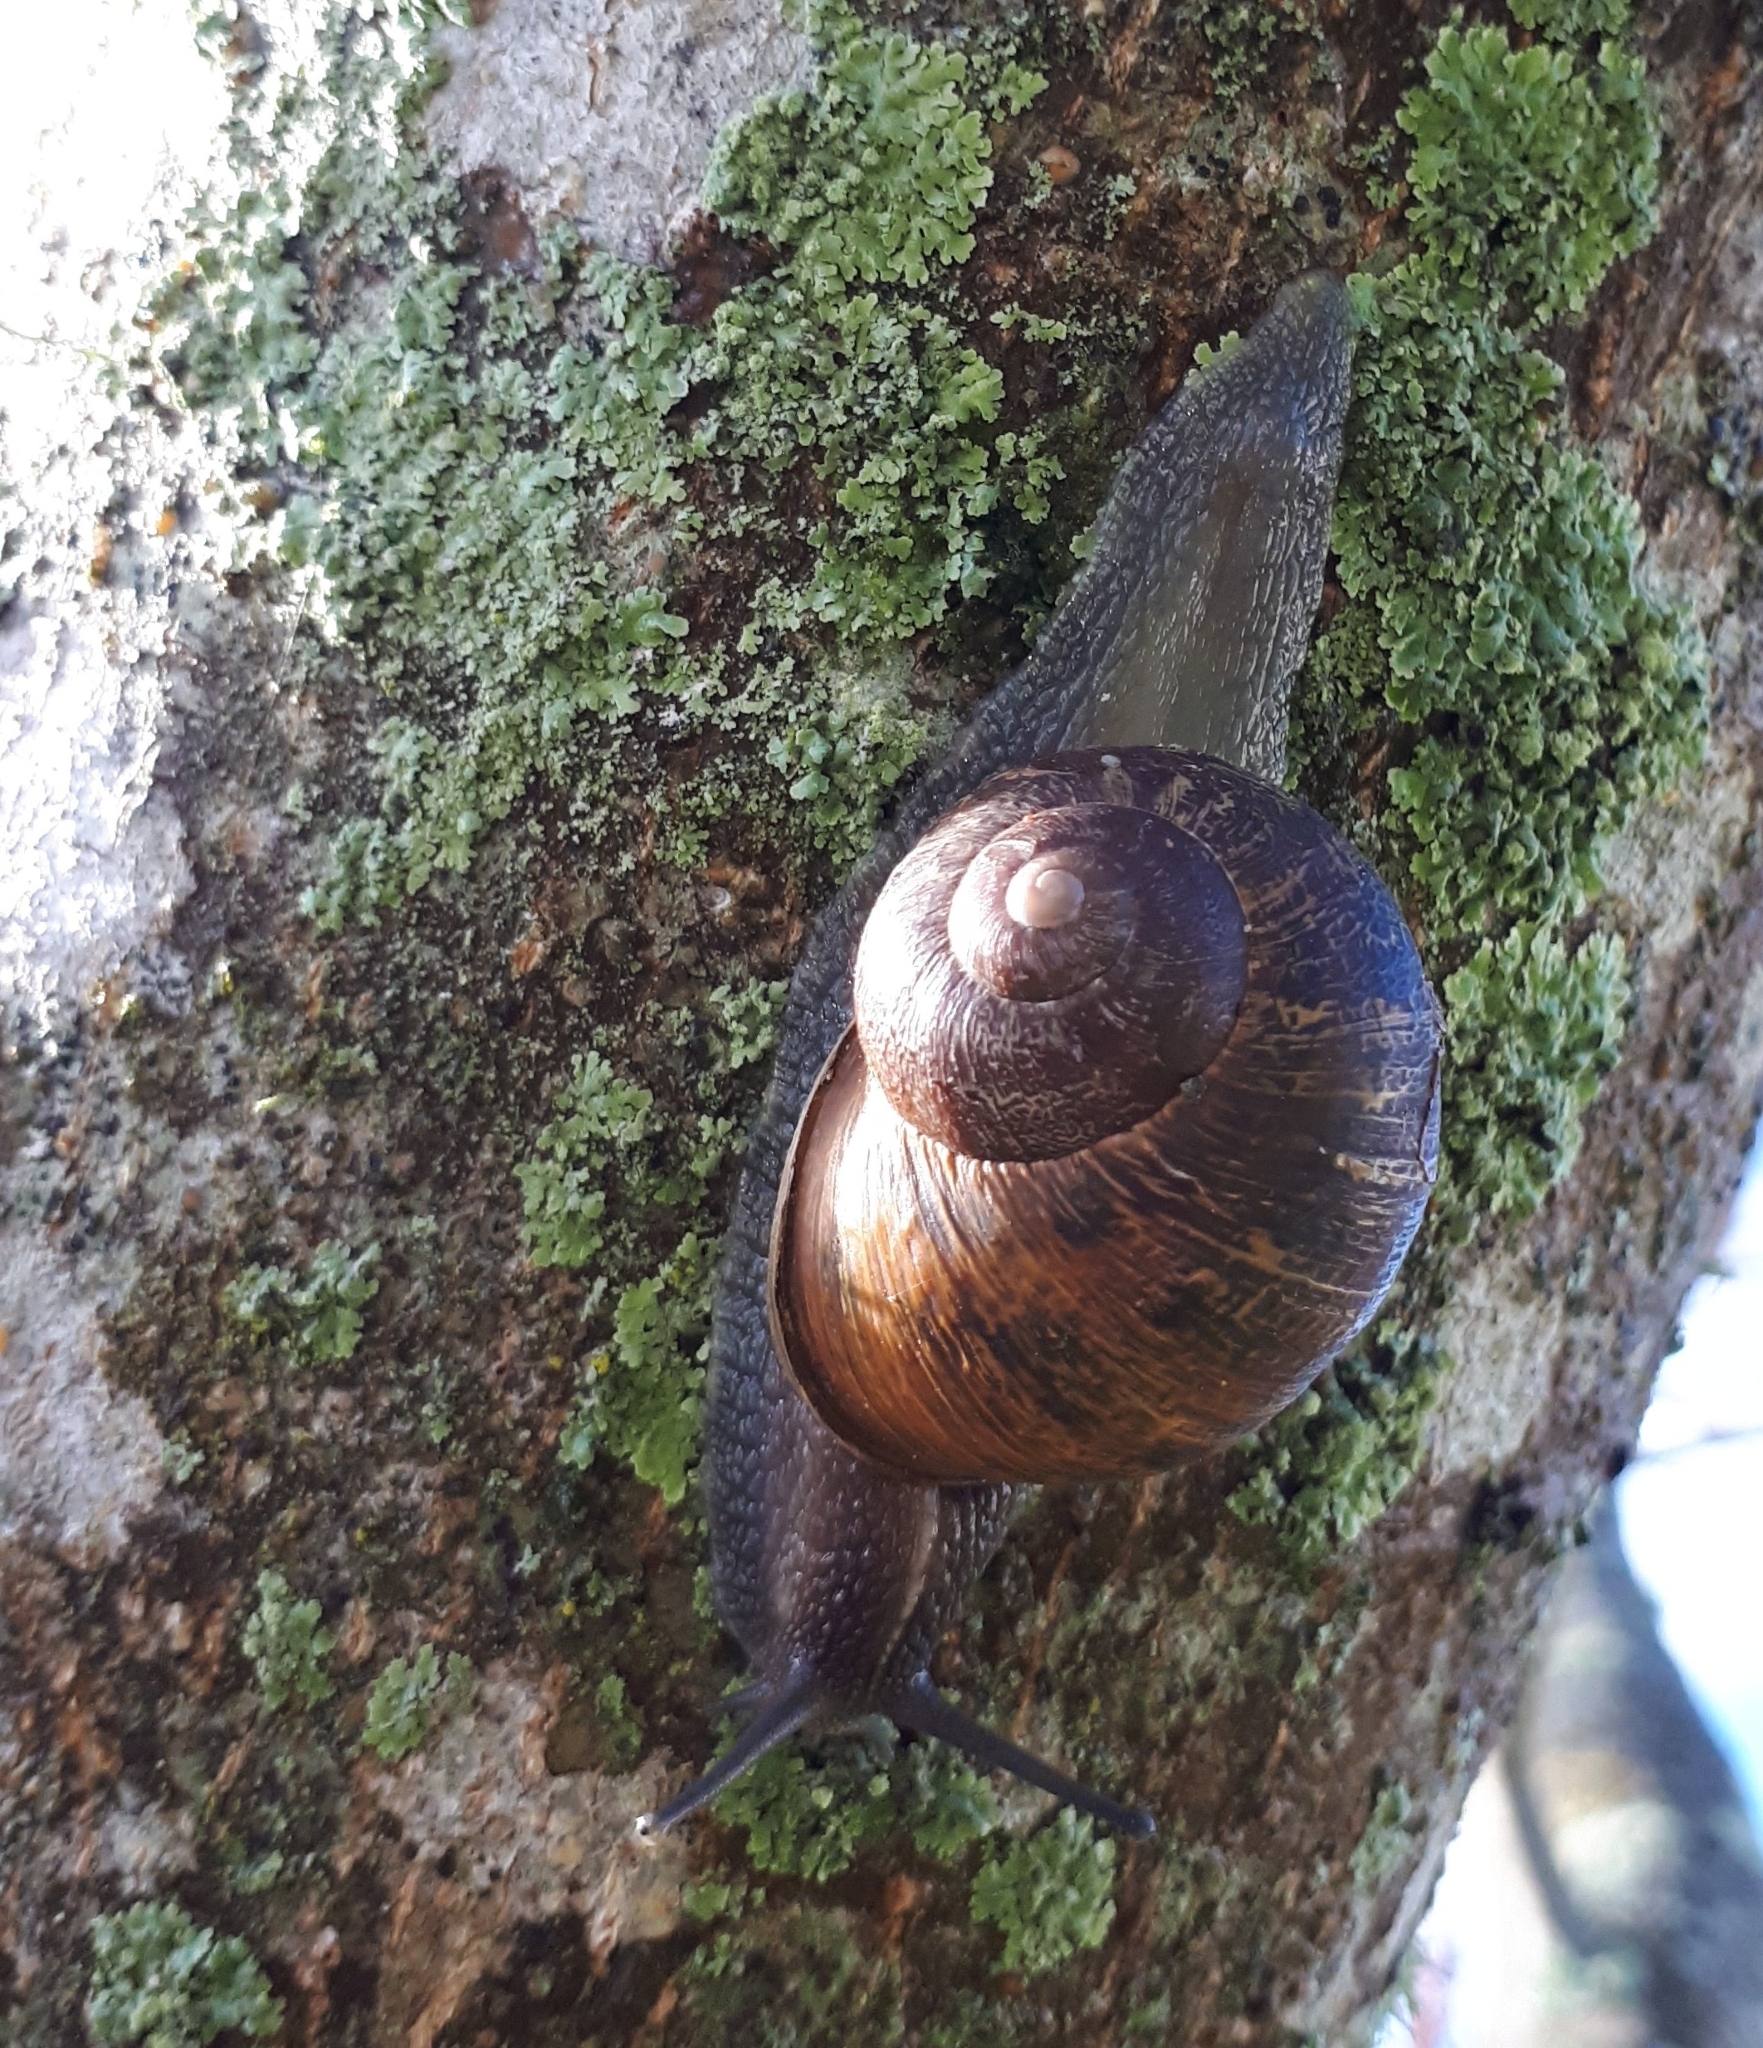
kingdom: Animalia
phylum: Mollusca
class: Gastropoda
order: Stylommatophora
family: Helicidae
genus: Cornu
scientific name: Cornu aspersum
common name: Brown garden snail
